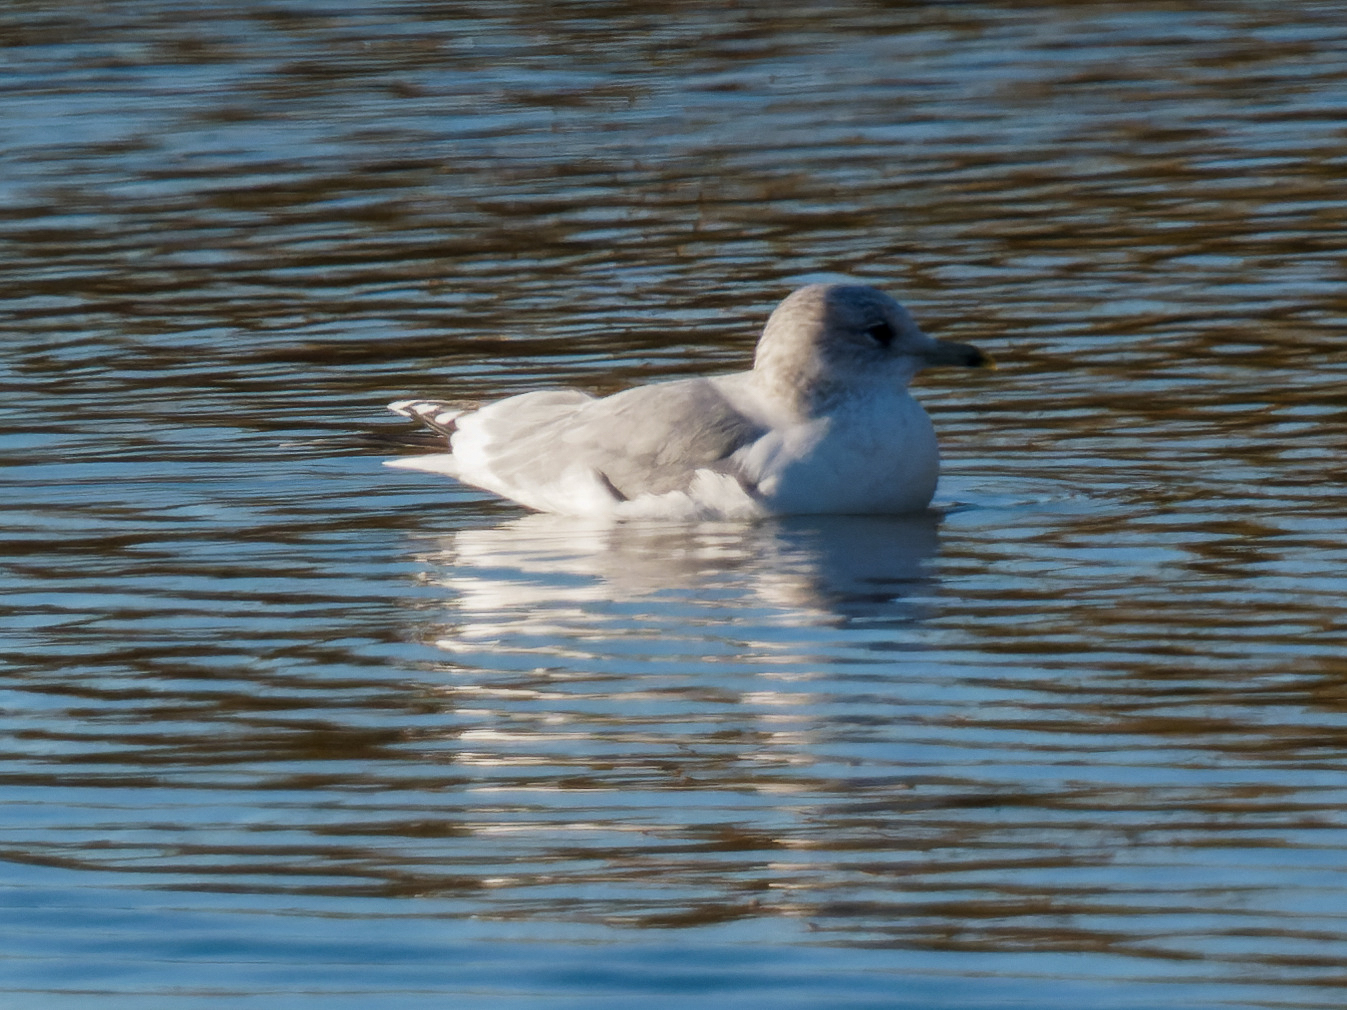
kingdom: Animalia
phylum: Chordata
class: Aves
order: Charadriiformes
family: Laridae
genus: Larus
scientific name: Larus canus
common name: Mew gull
